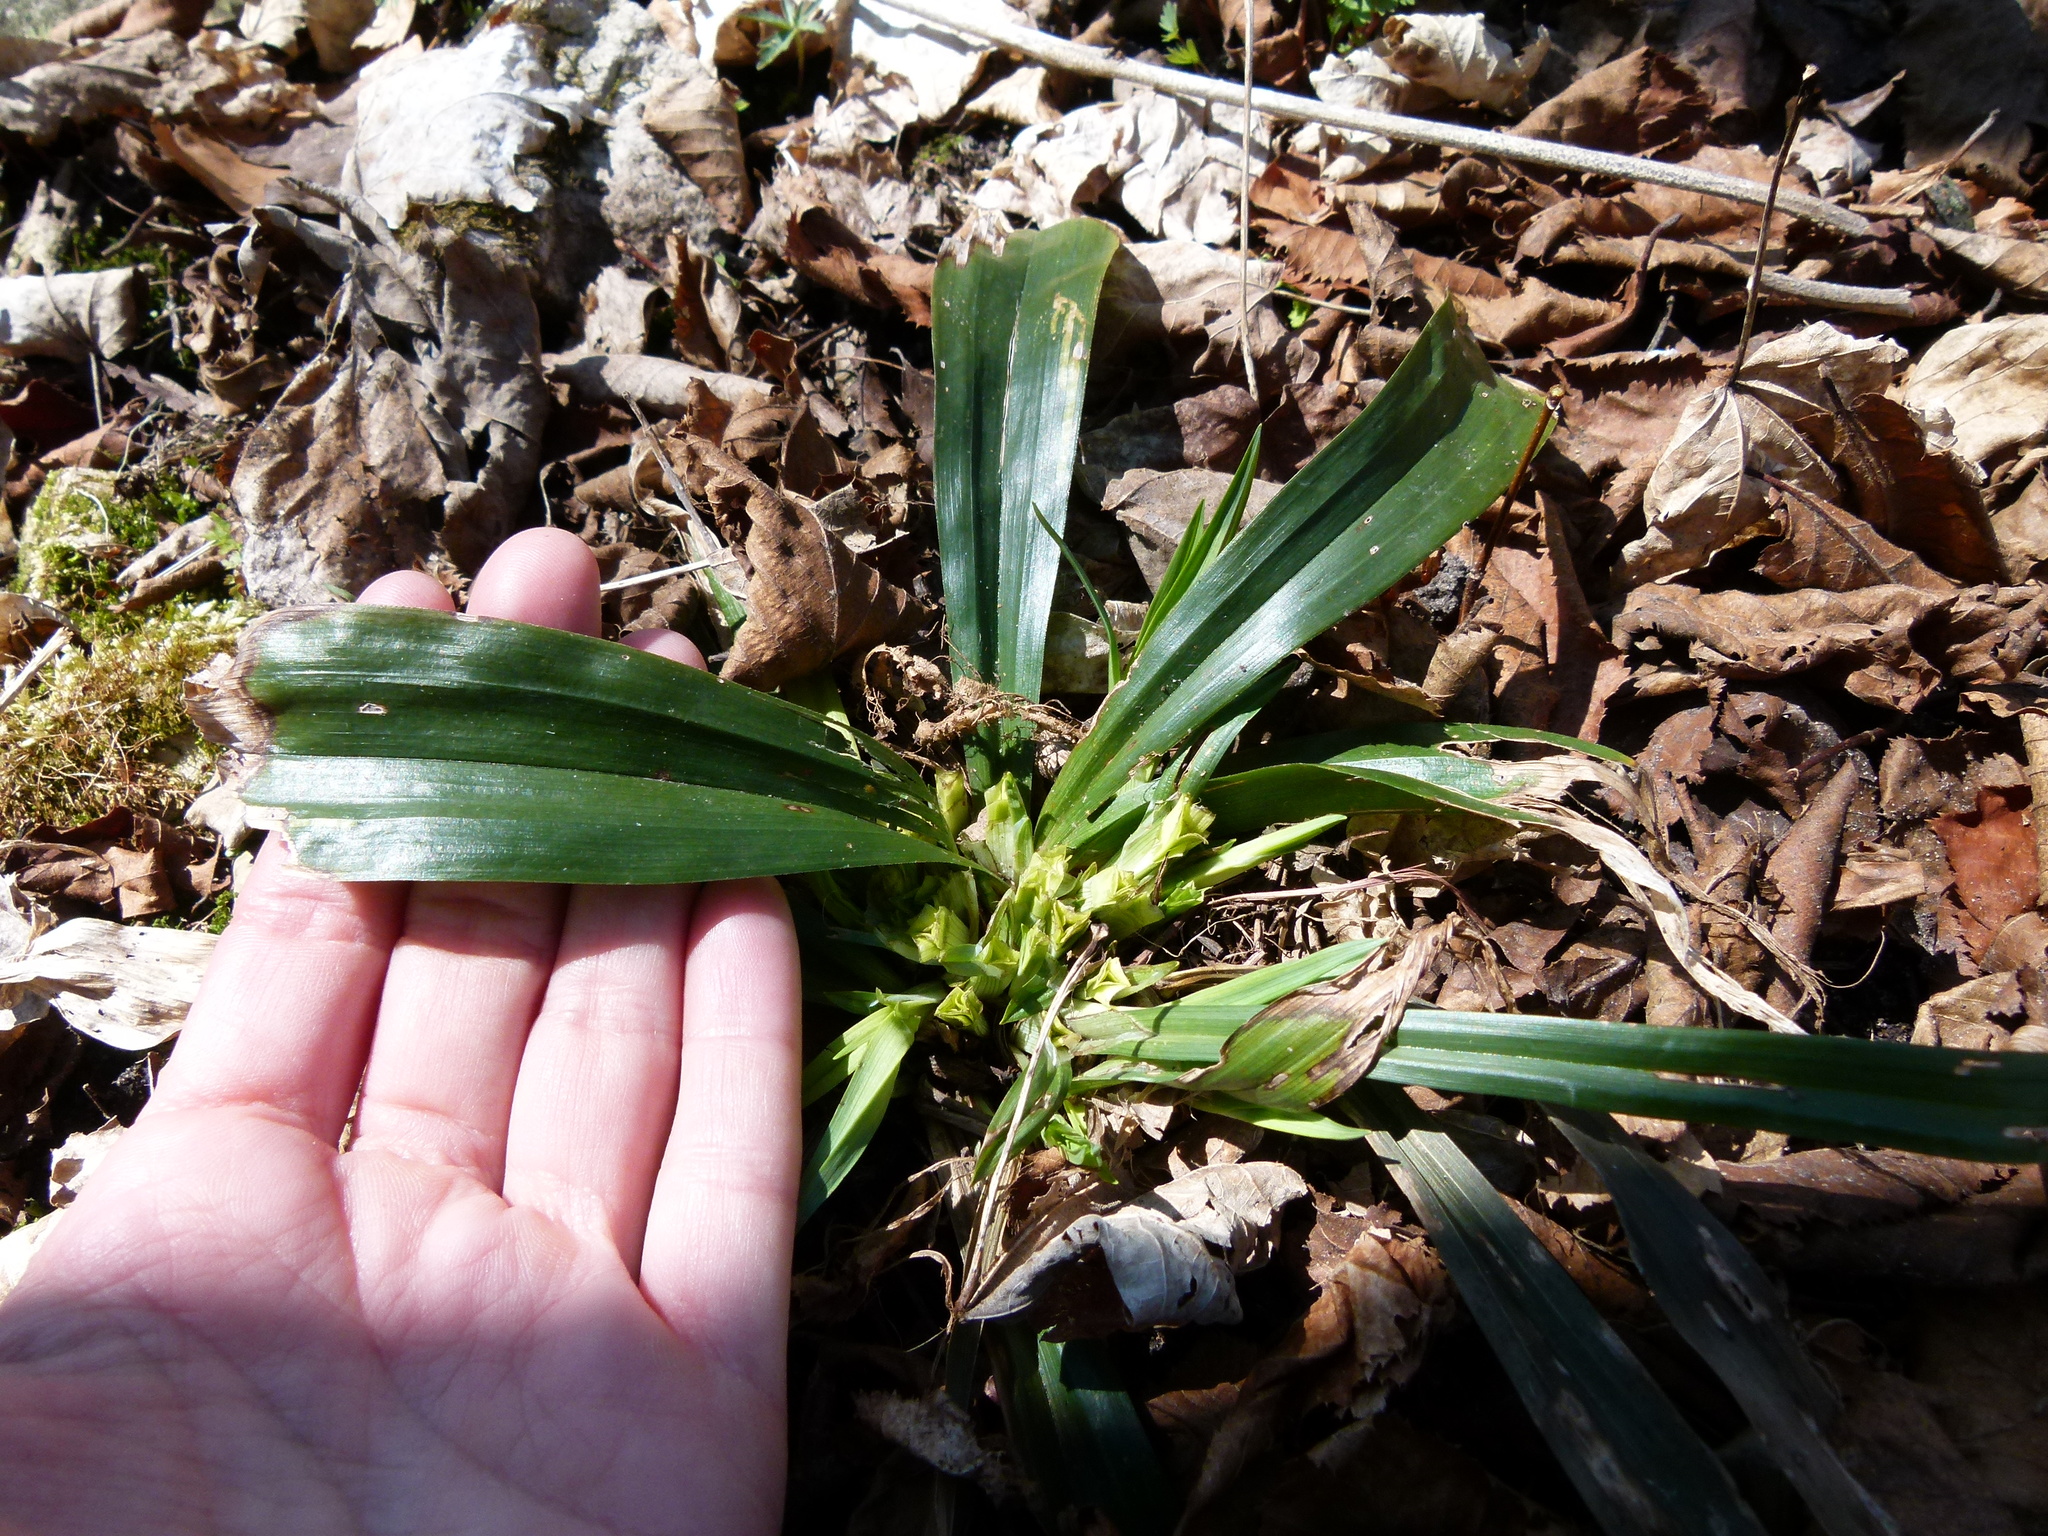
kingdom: Plantae
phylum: Tracheophyta
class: Liliopsida
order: Poales
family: Cyperaceae
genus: Carex
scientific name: Carex albursina
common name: Blunt-scale wood sedge
